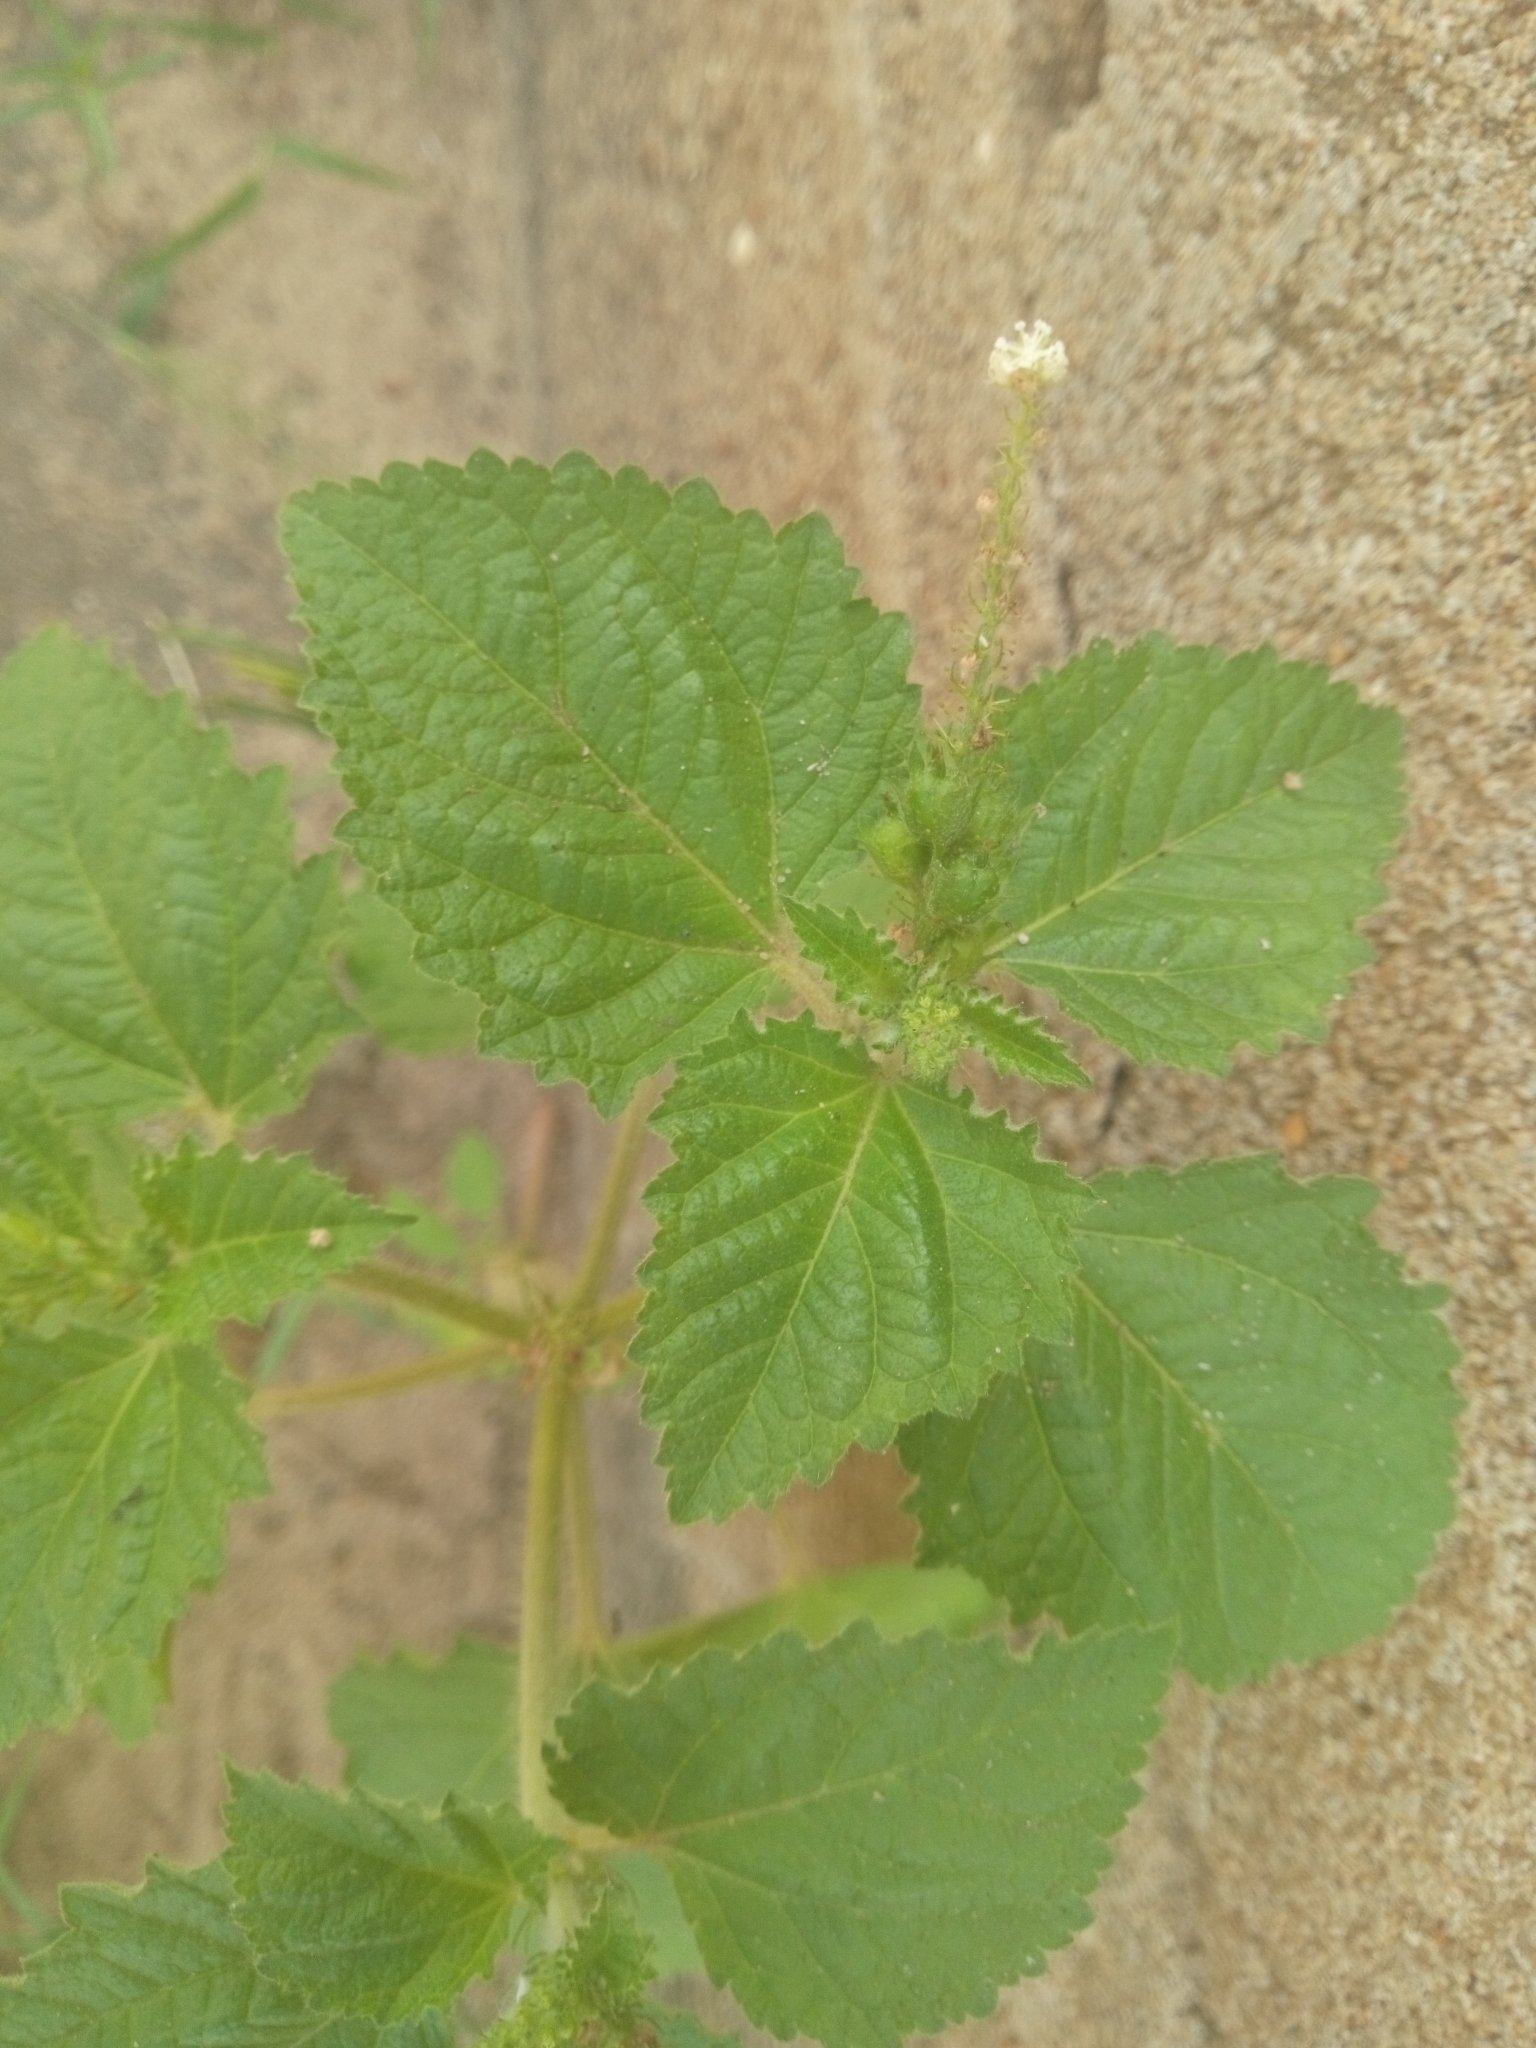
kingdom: Plantae
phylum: Tracheophyta
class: Magnoliopsida
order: Rosales
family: Urticaceae
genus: Laportea
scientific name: Laportea aestuans
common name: West indian woodnettle
